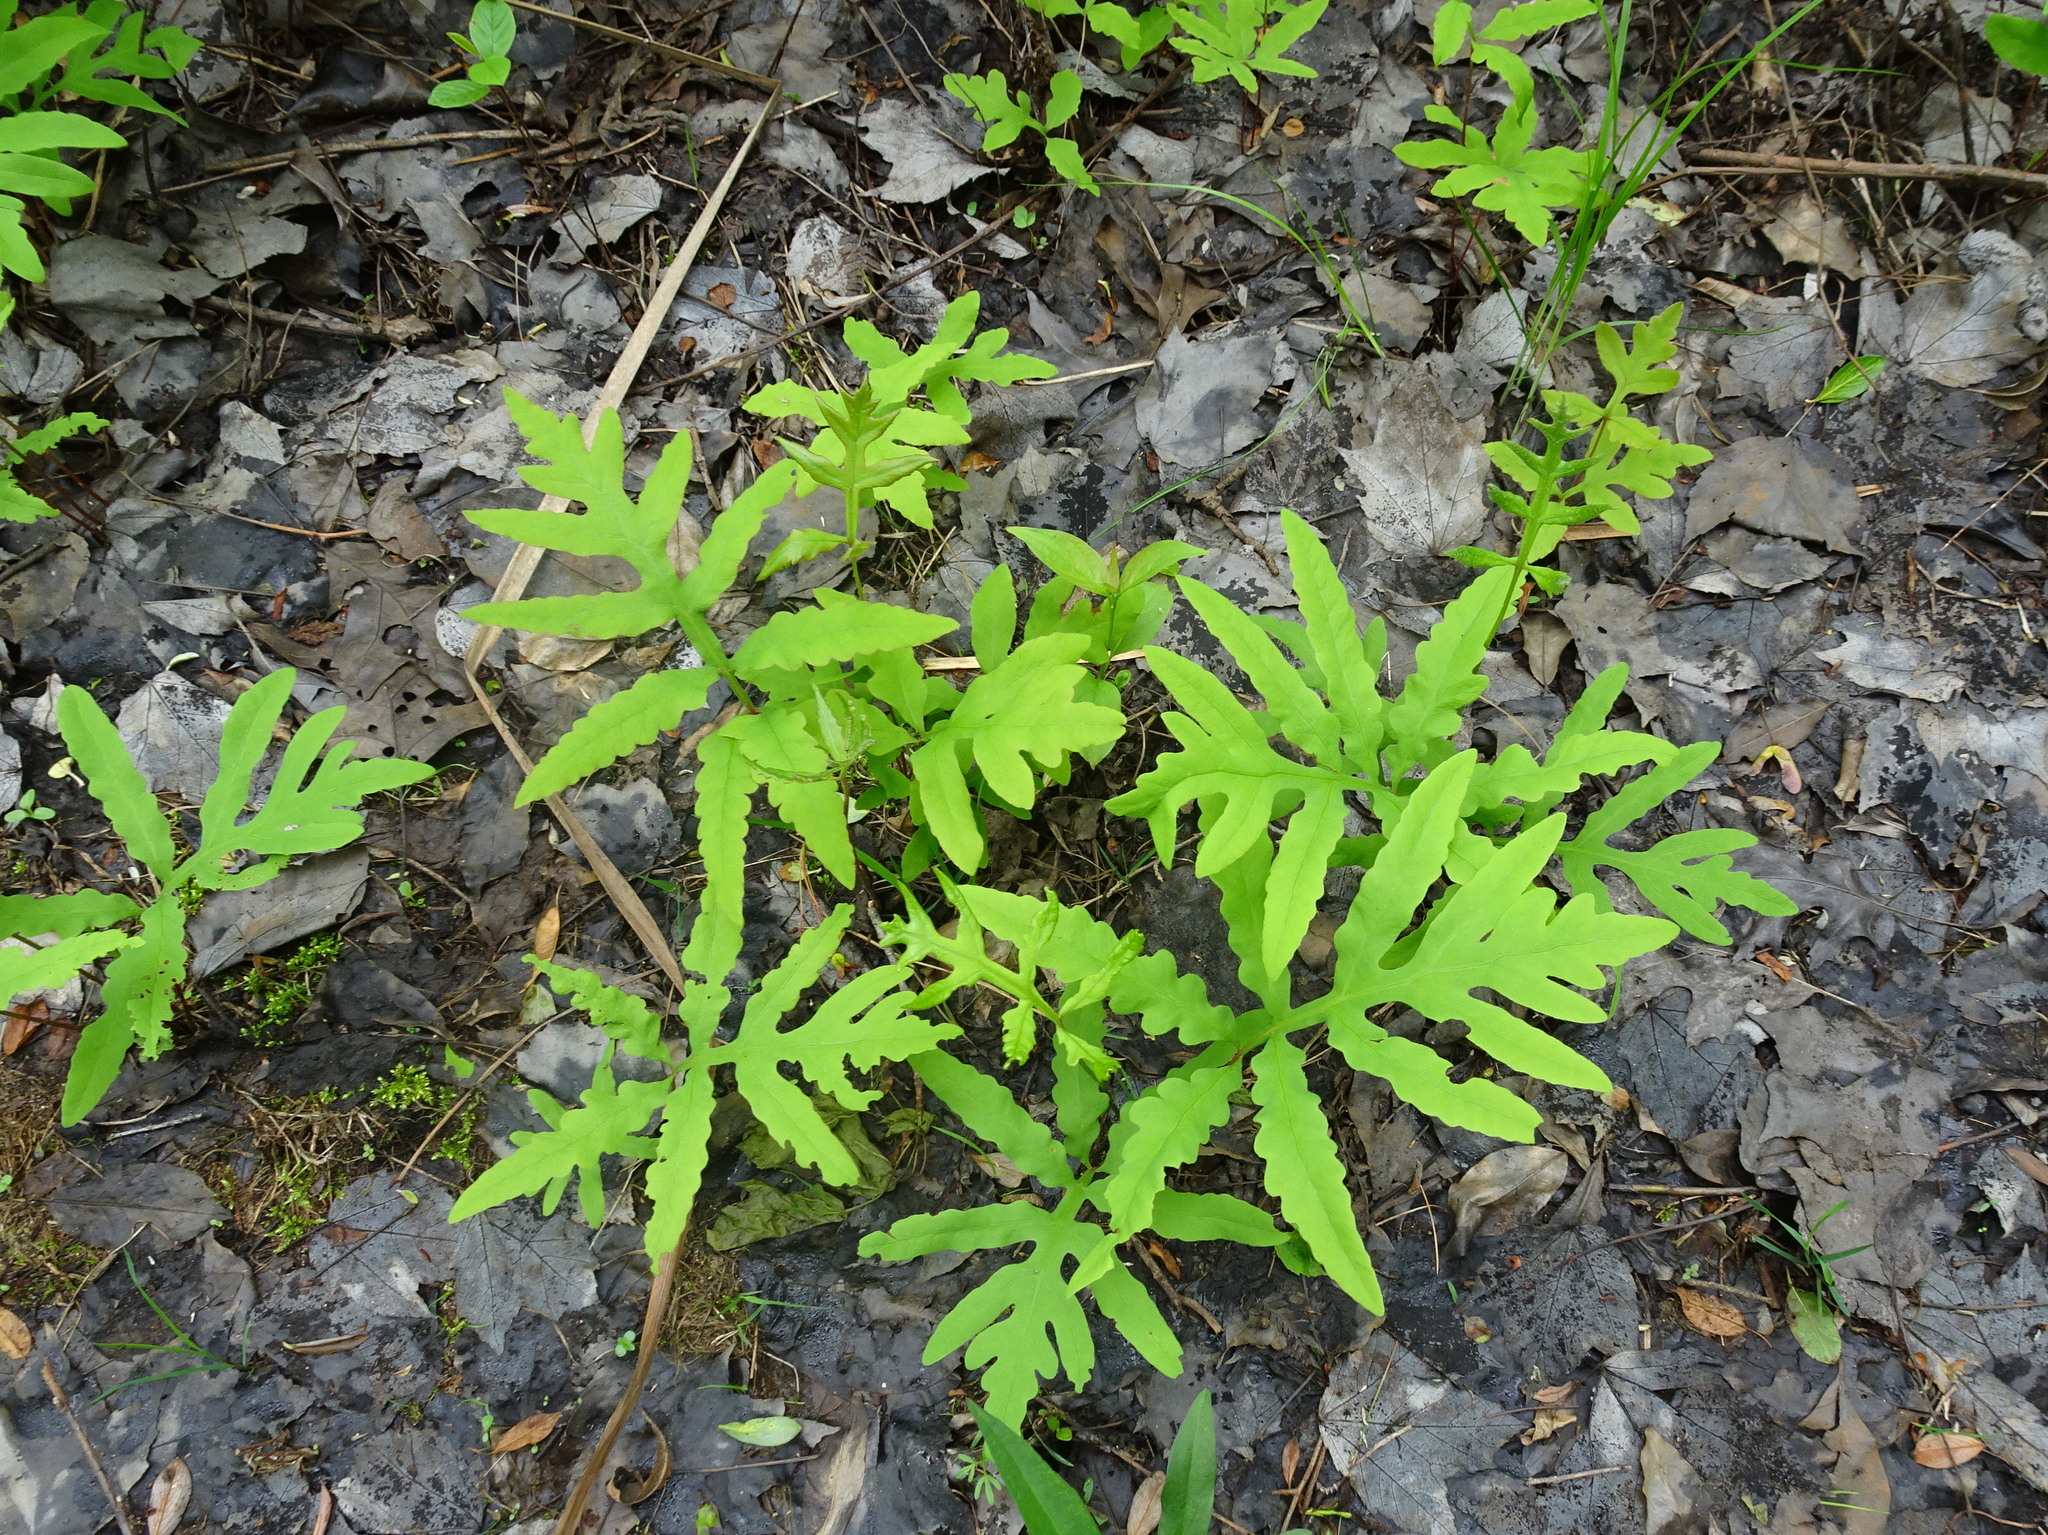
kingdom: Plantae
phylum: Tracheophyta
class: Polypodiopsida
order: Polypodiales
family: Onocleaceae
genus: Onoclea
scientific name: Onoclea sensibilis
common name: Sensitive fern
